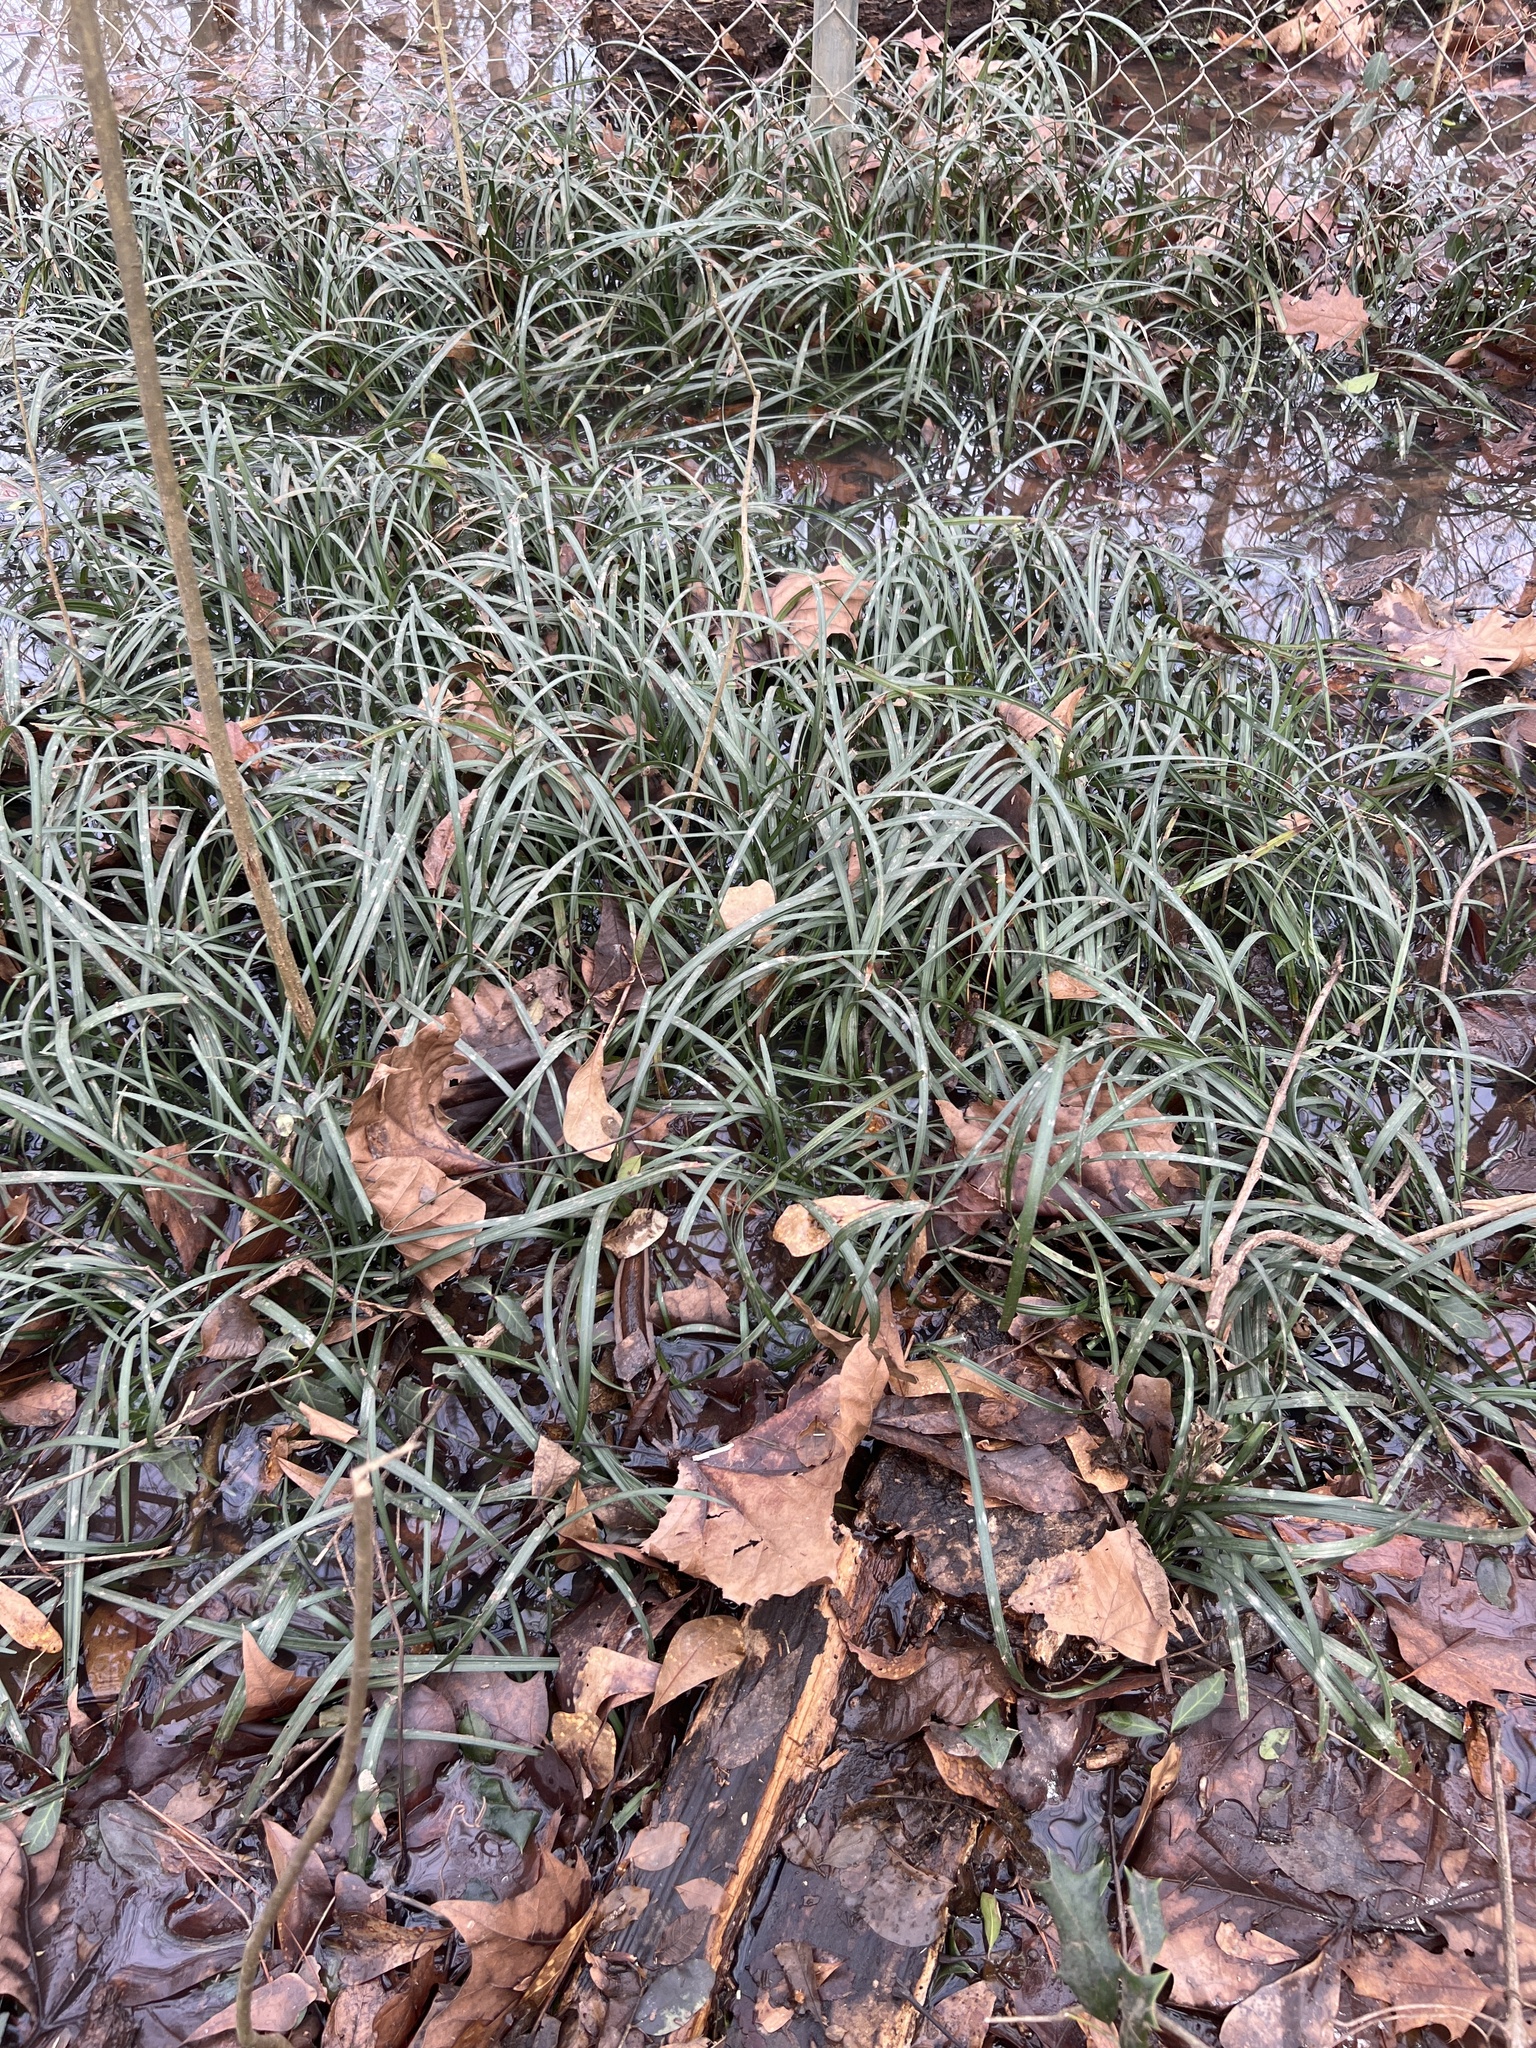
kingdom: Plantae
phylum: Tracheophyta
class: Liliopsida
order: Asparagales
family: Asparagaceae
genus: Liriope
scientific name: Liriope spicata
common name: Creeping liriope
